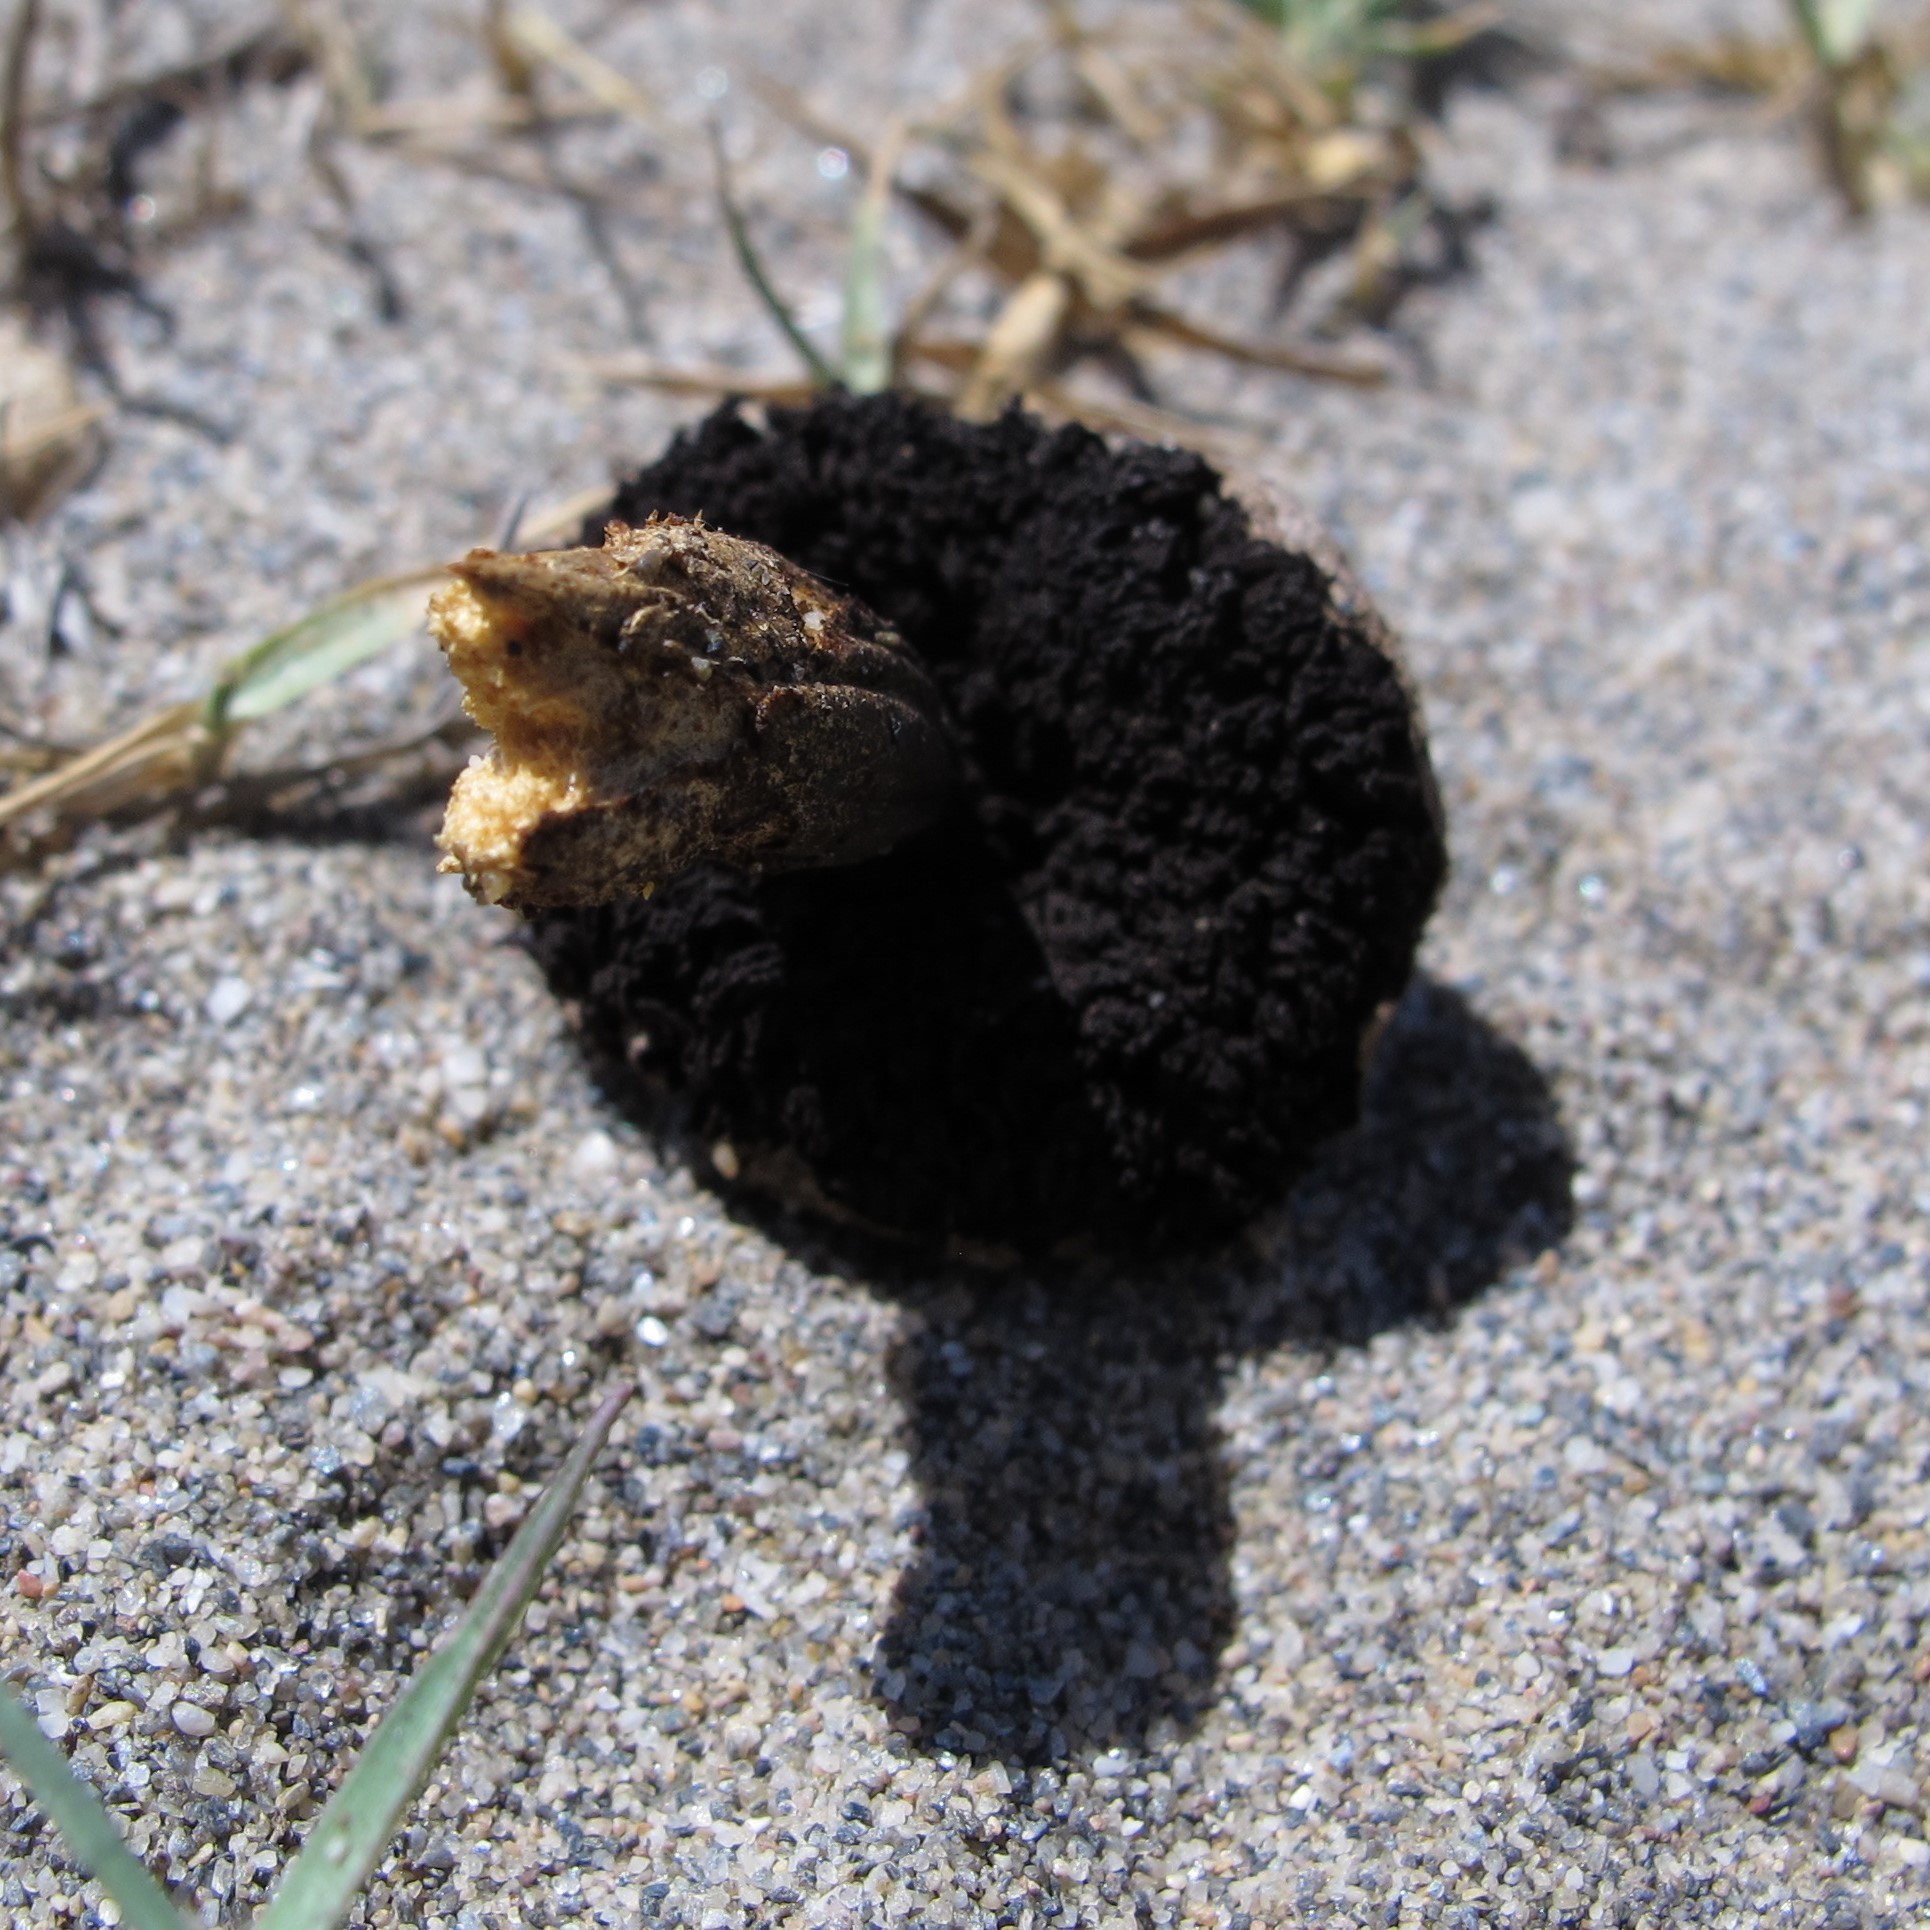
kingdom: Fungi
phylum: Basidiomycota
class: Agaricomycetes
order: Agaricales
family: Agaricaceae
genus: Agaricus
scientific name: Agaricus aridicola
